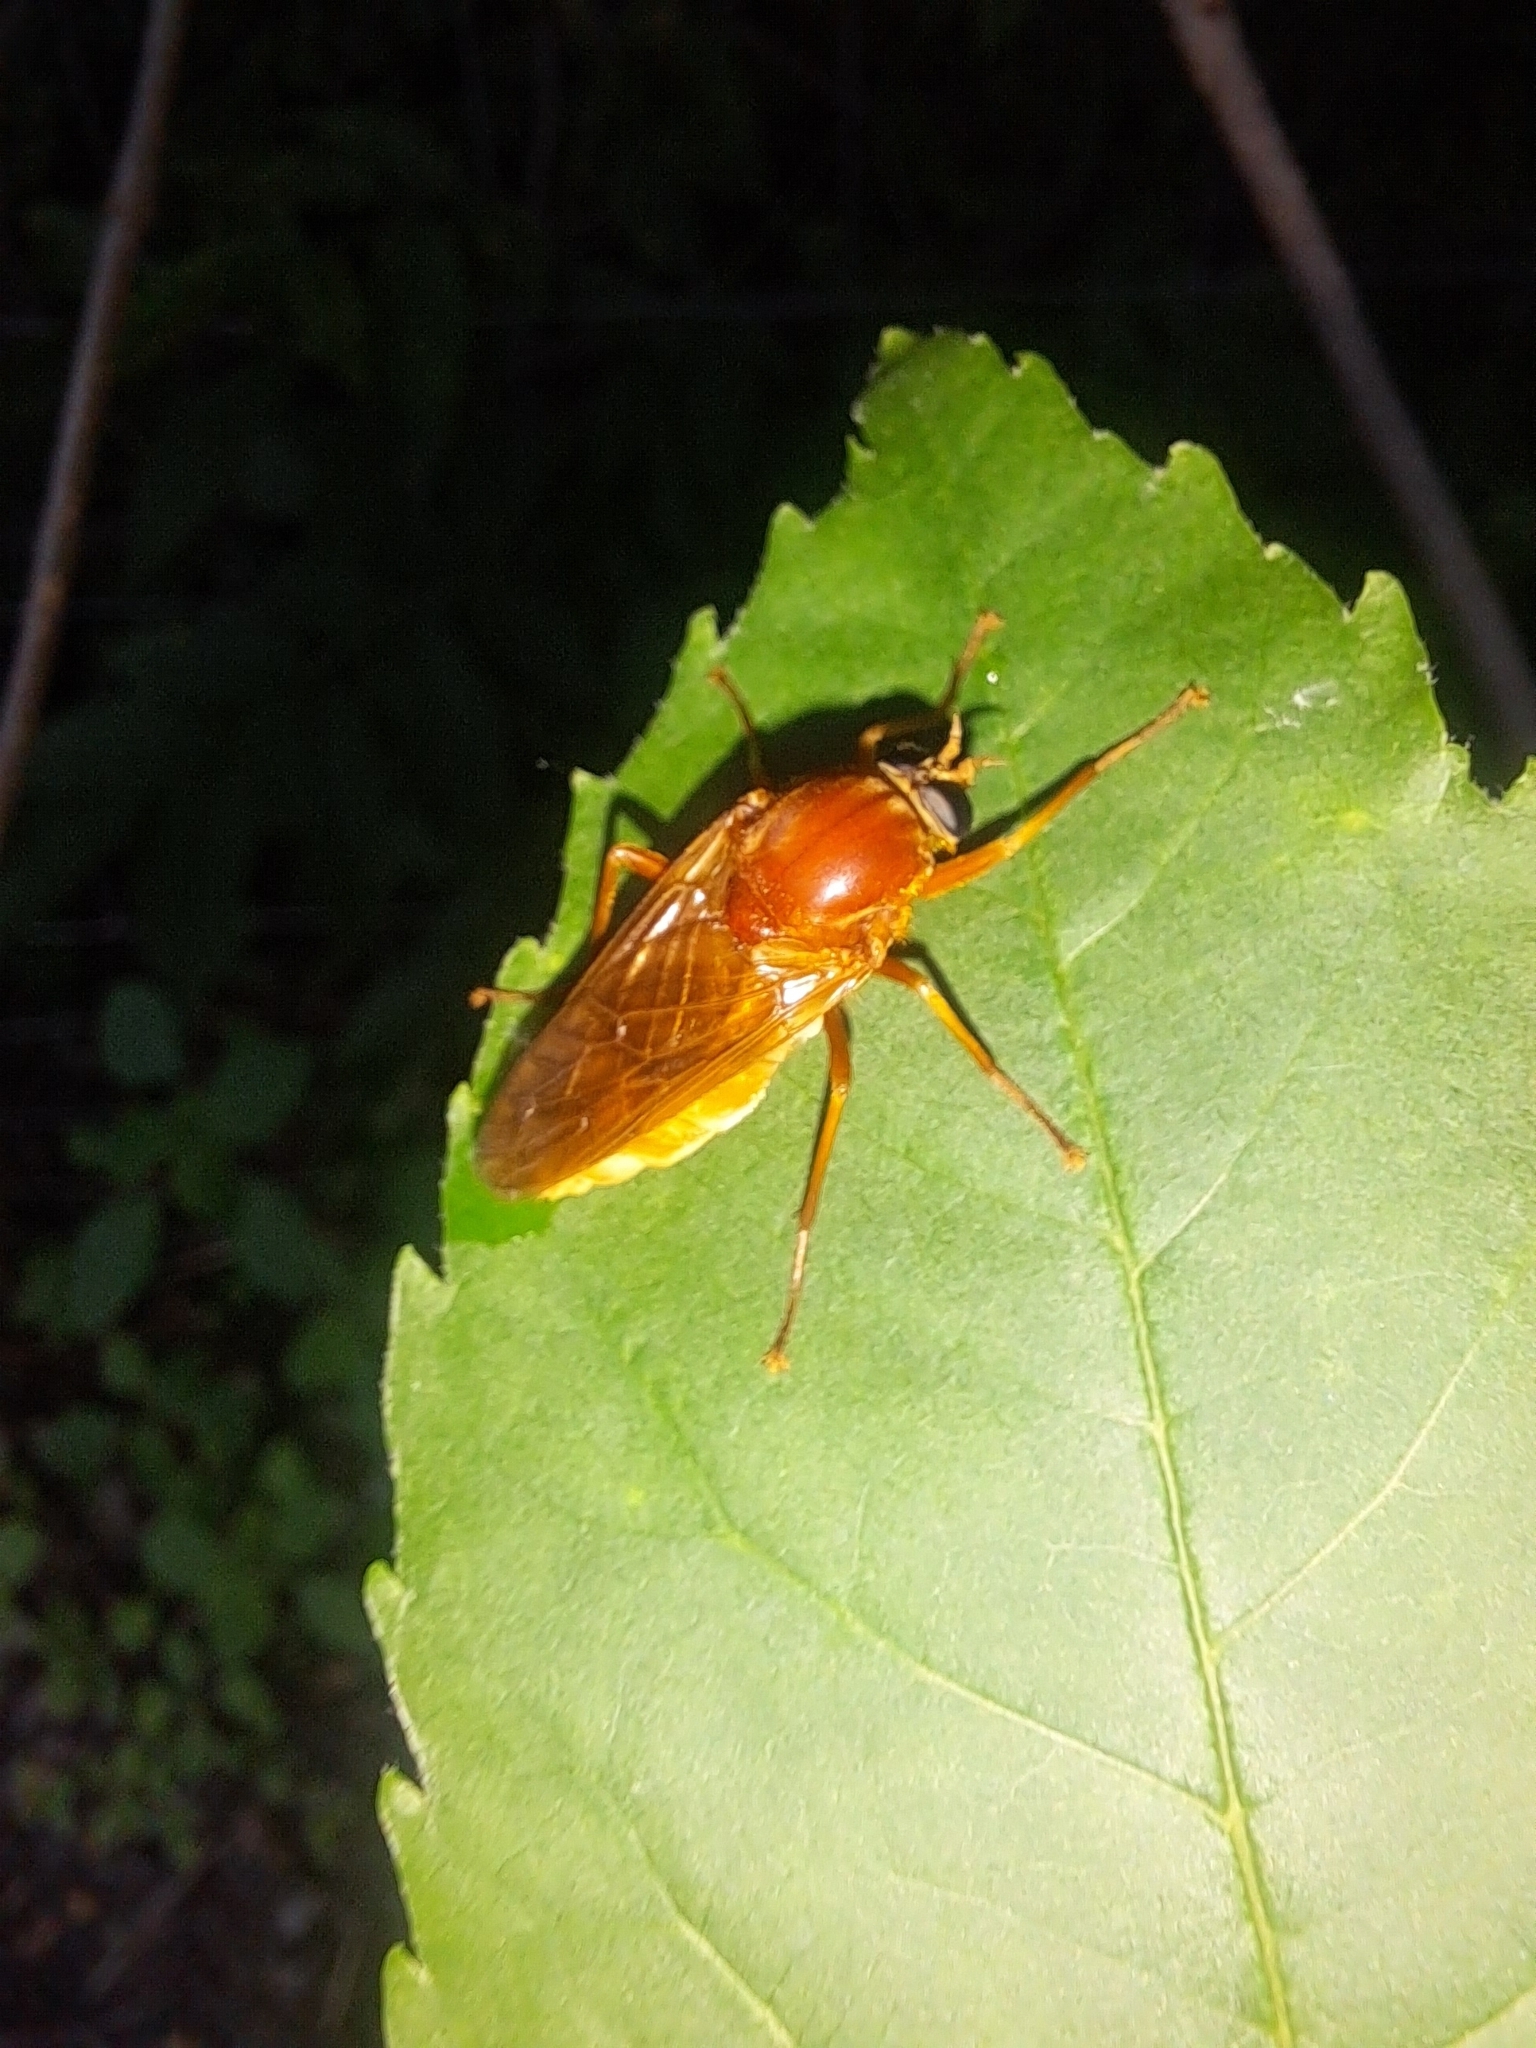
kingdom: Animalia
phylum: Arthropoda
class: Insecta
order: Diptera
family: Xylophagidae
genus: Coenomyia
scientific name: Coenomyia ferruginea
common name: Stink fly
